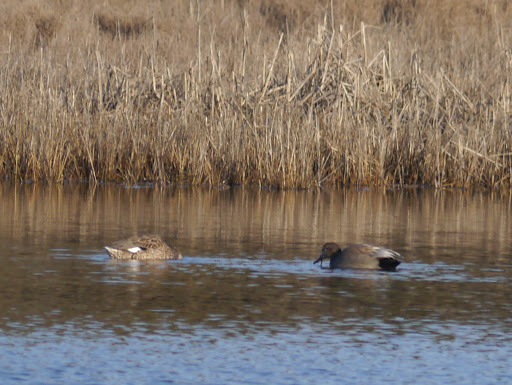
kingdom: Animalia
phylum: Chordata
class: Aves
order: Anseriformes
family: Anatidae
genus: Mareca
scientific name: Mareca strepera
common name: Gadwall
